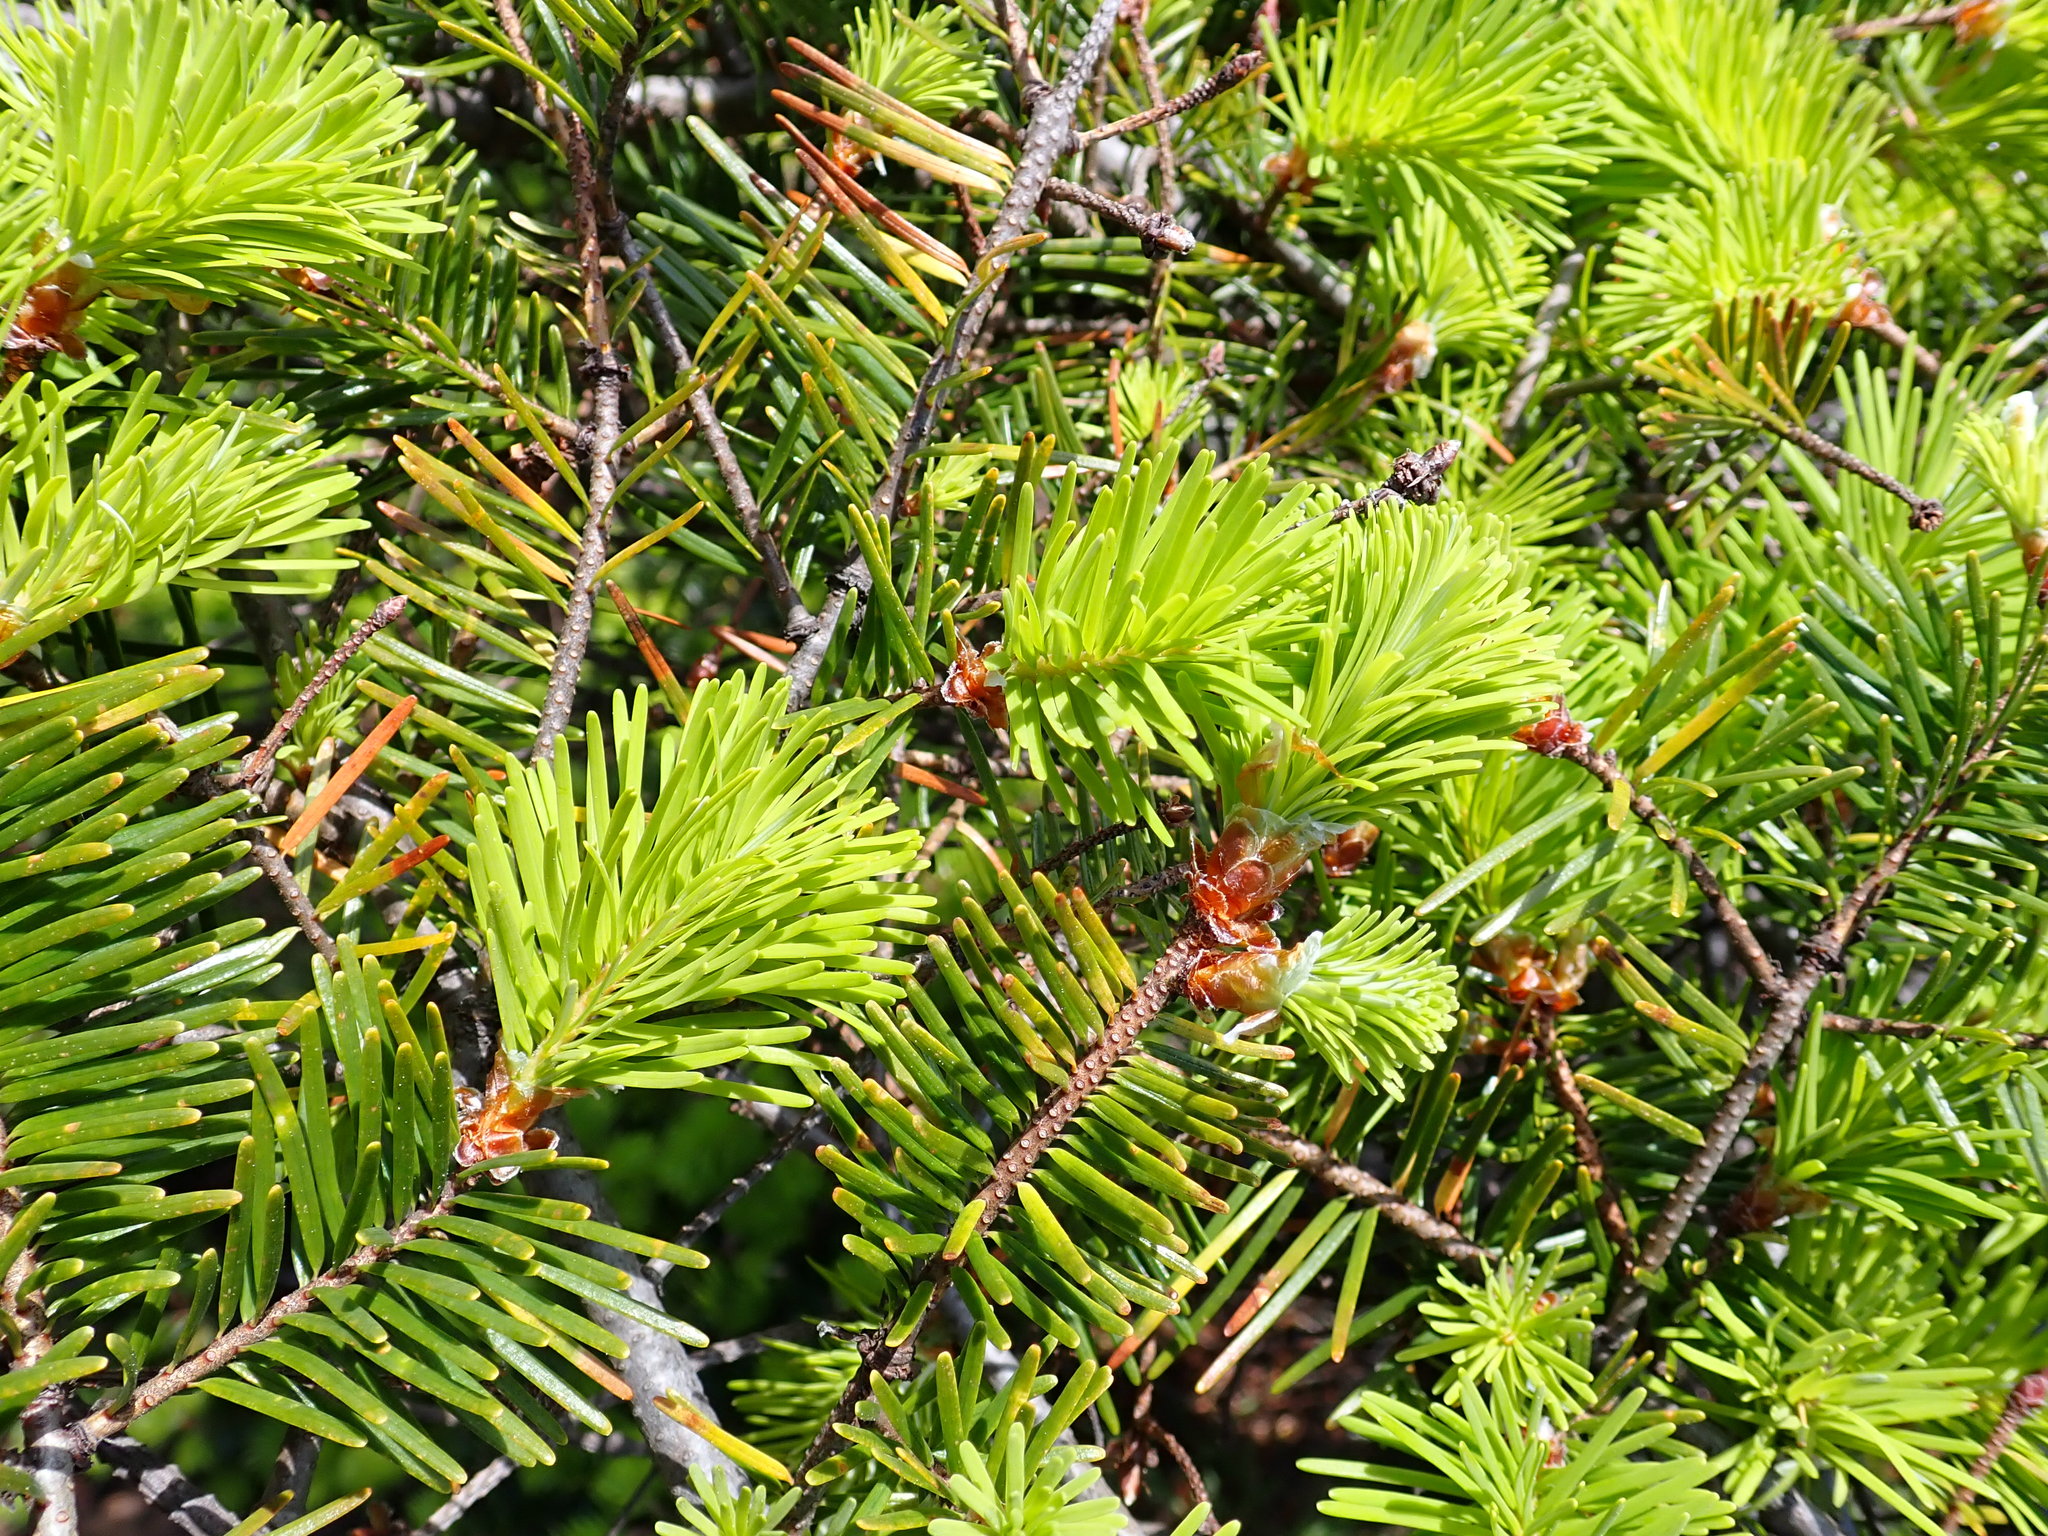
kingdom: Plantae
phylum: Tracheophyta
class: Pinopsida
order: Pinales
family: Pinaceae
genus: Pseudotsuga
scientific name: Pseudotsuga menziesii
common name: Douglas fir
